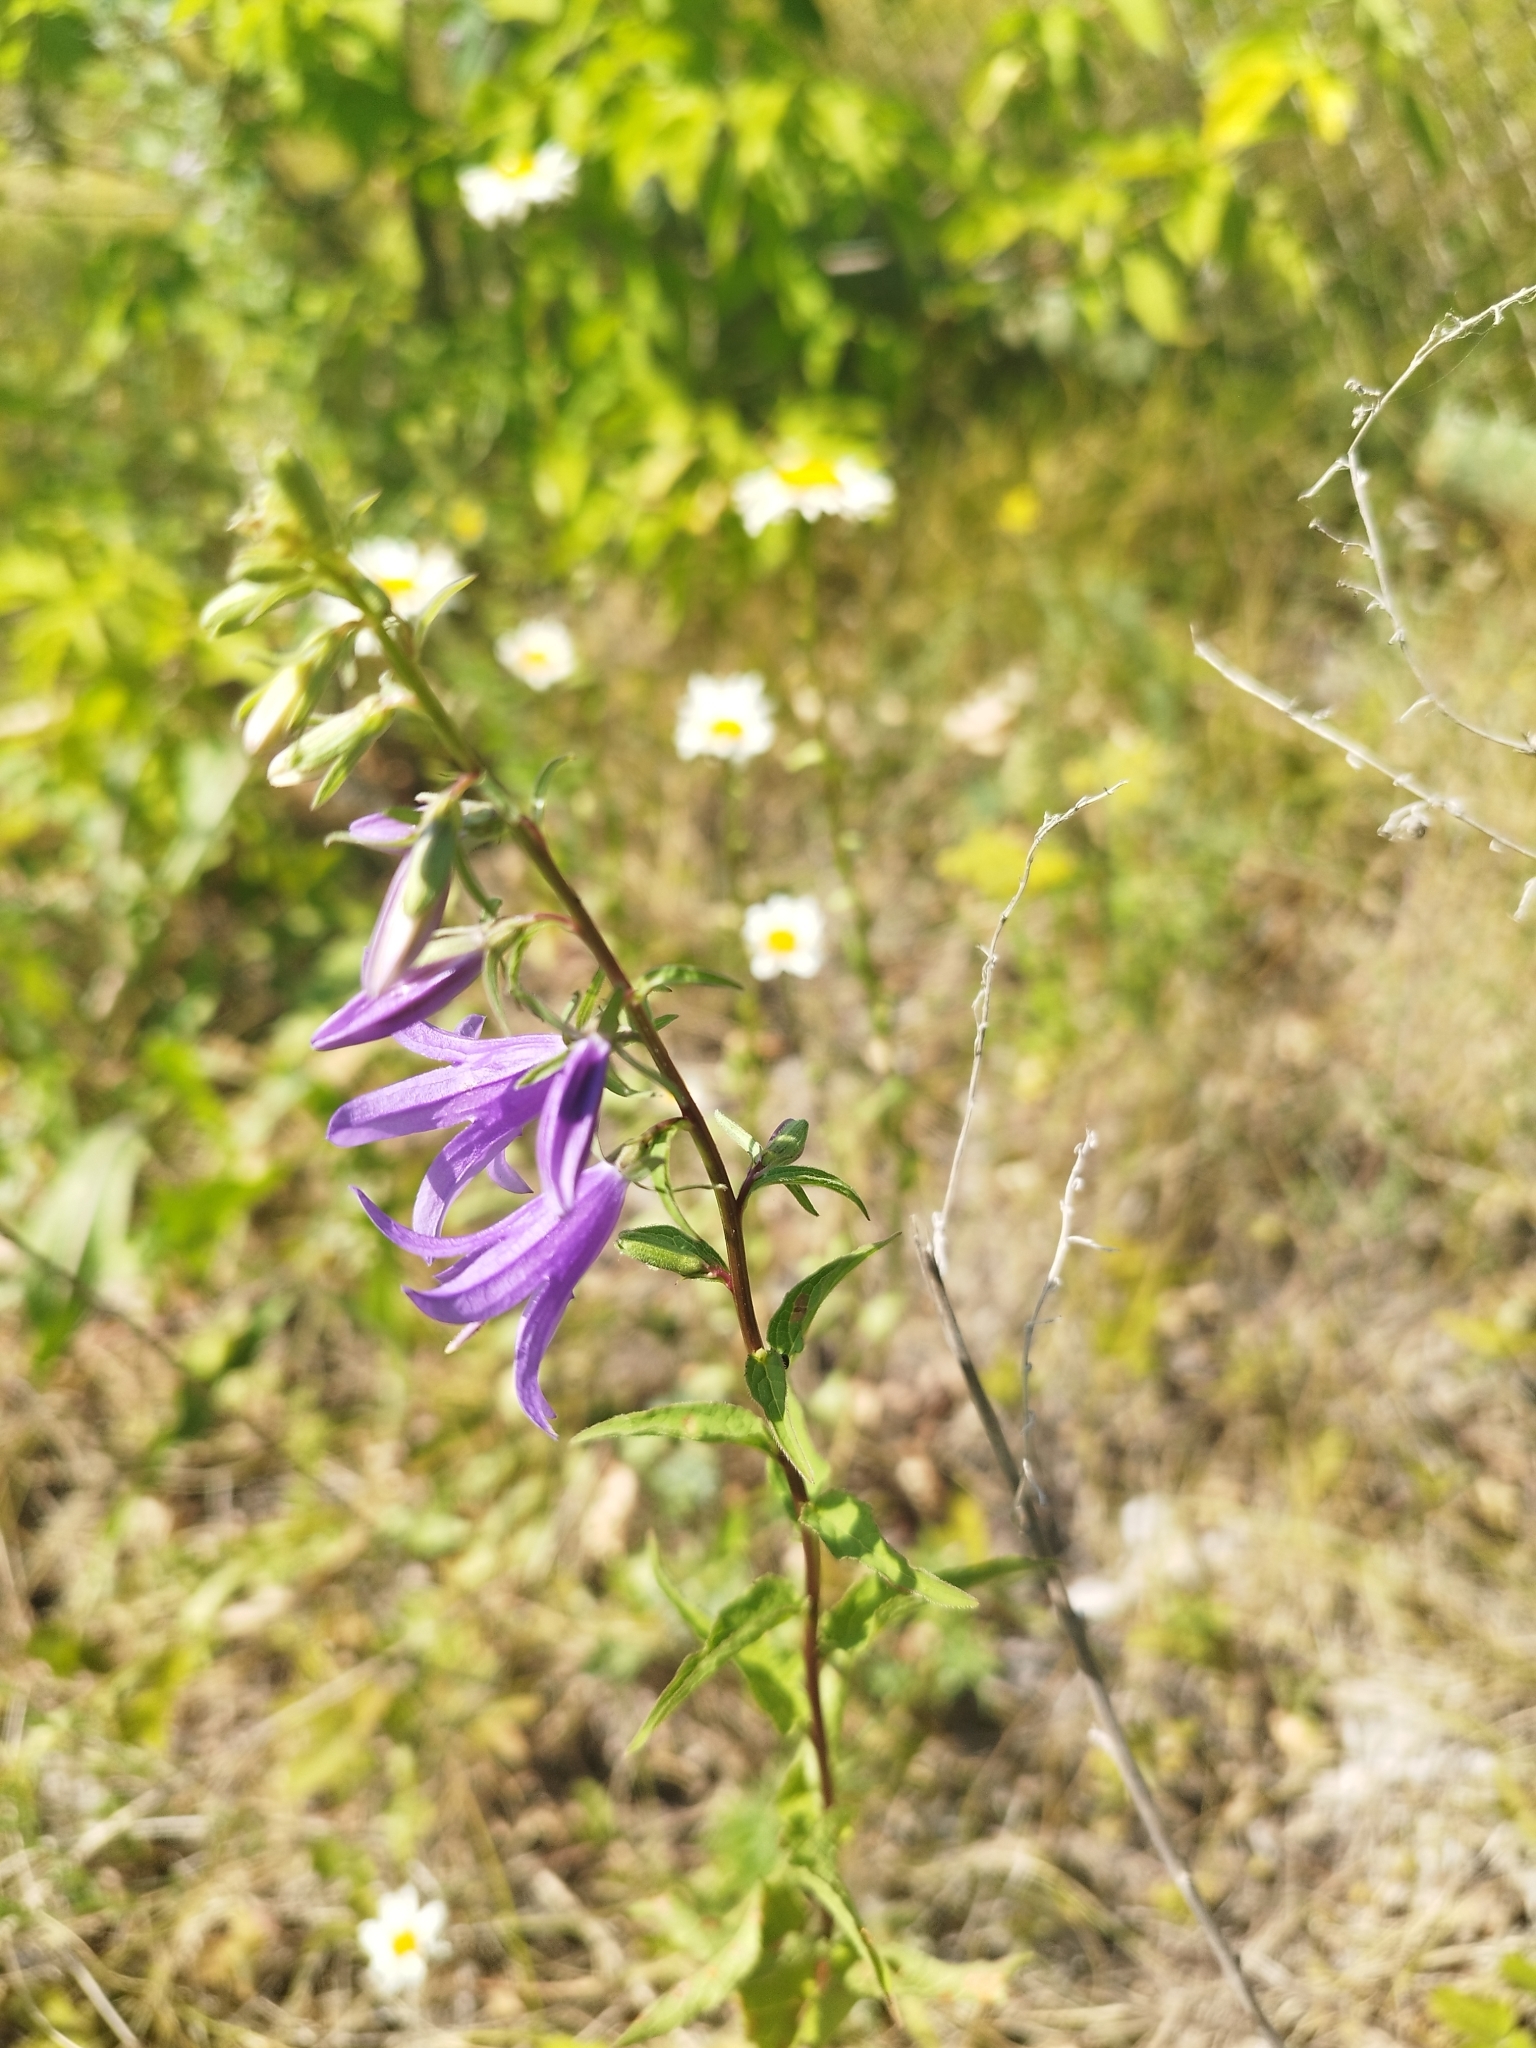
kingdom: Plantae
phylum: Tracheophyta
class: Magnoliopsida
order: Asterales
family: Campanulaceae
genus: Campanula
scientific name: Campanula rapunculoides
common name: Creeping bellflower
